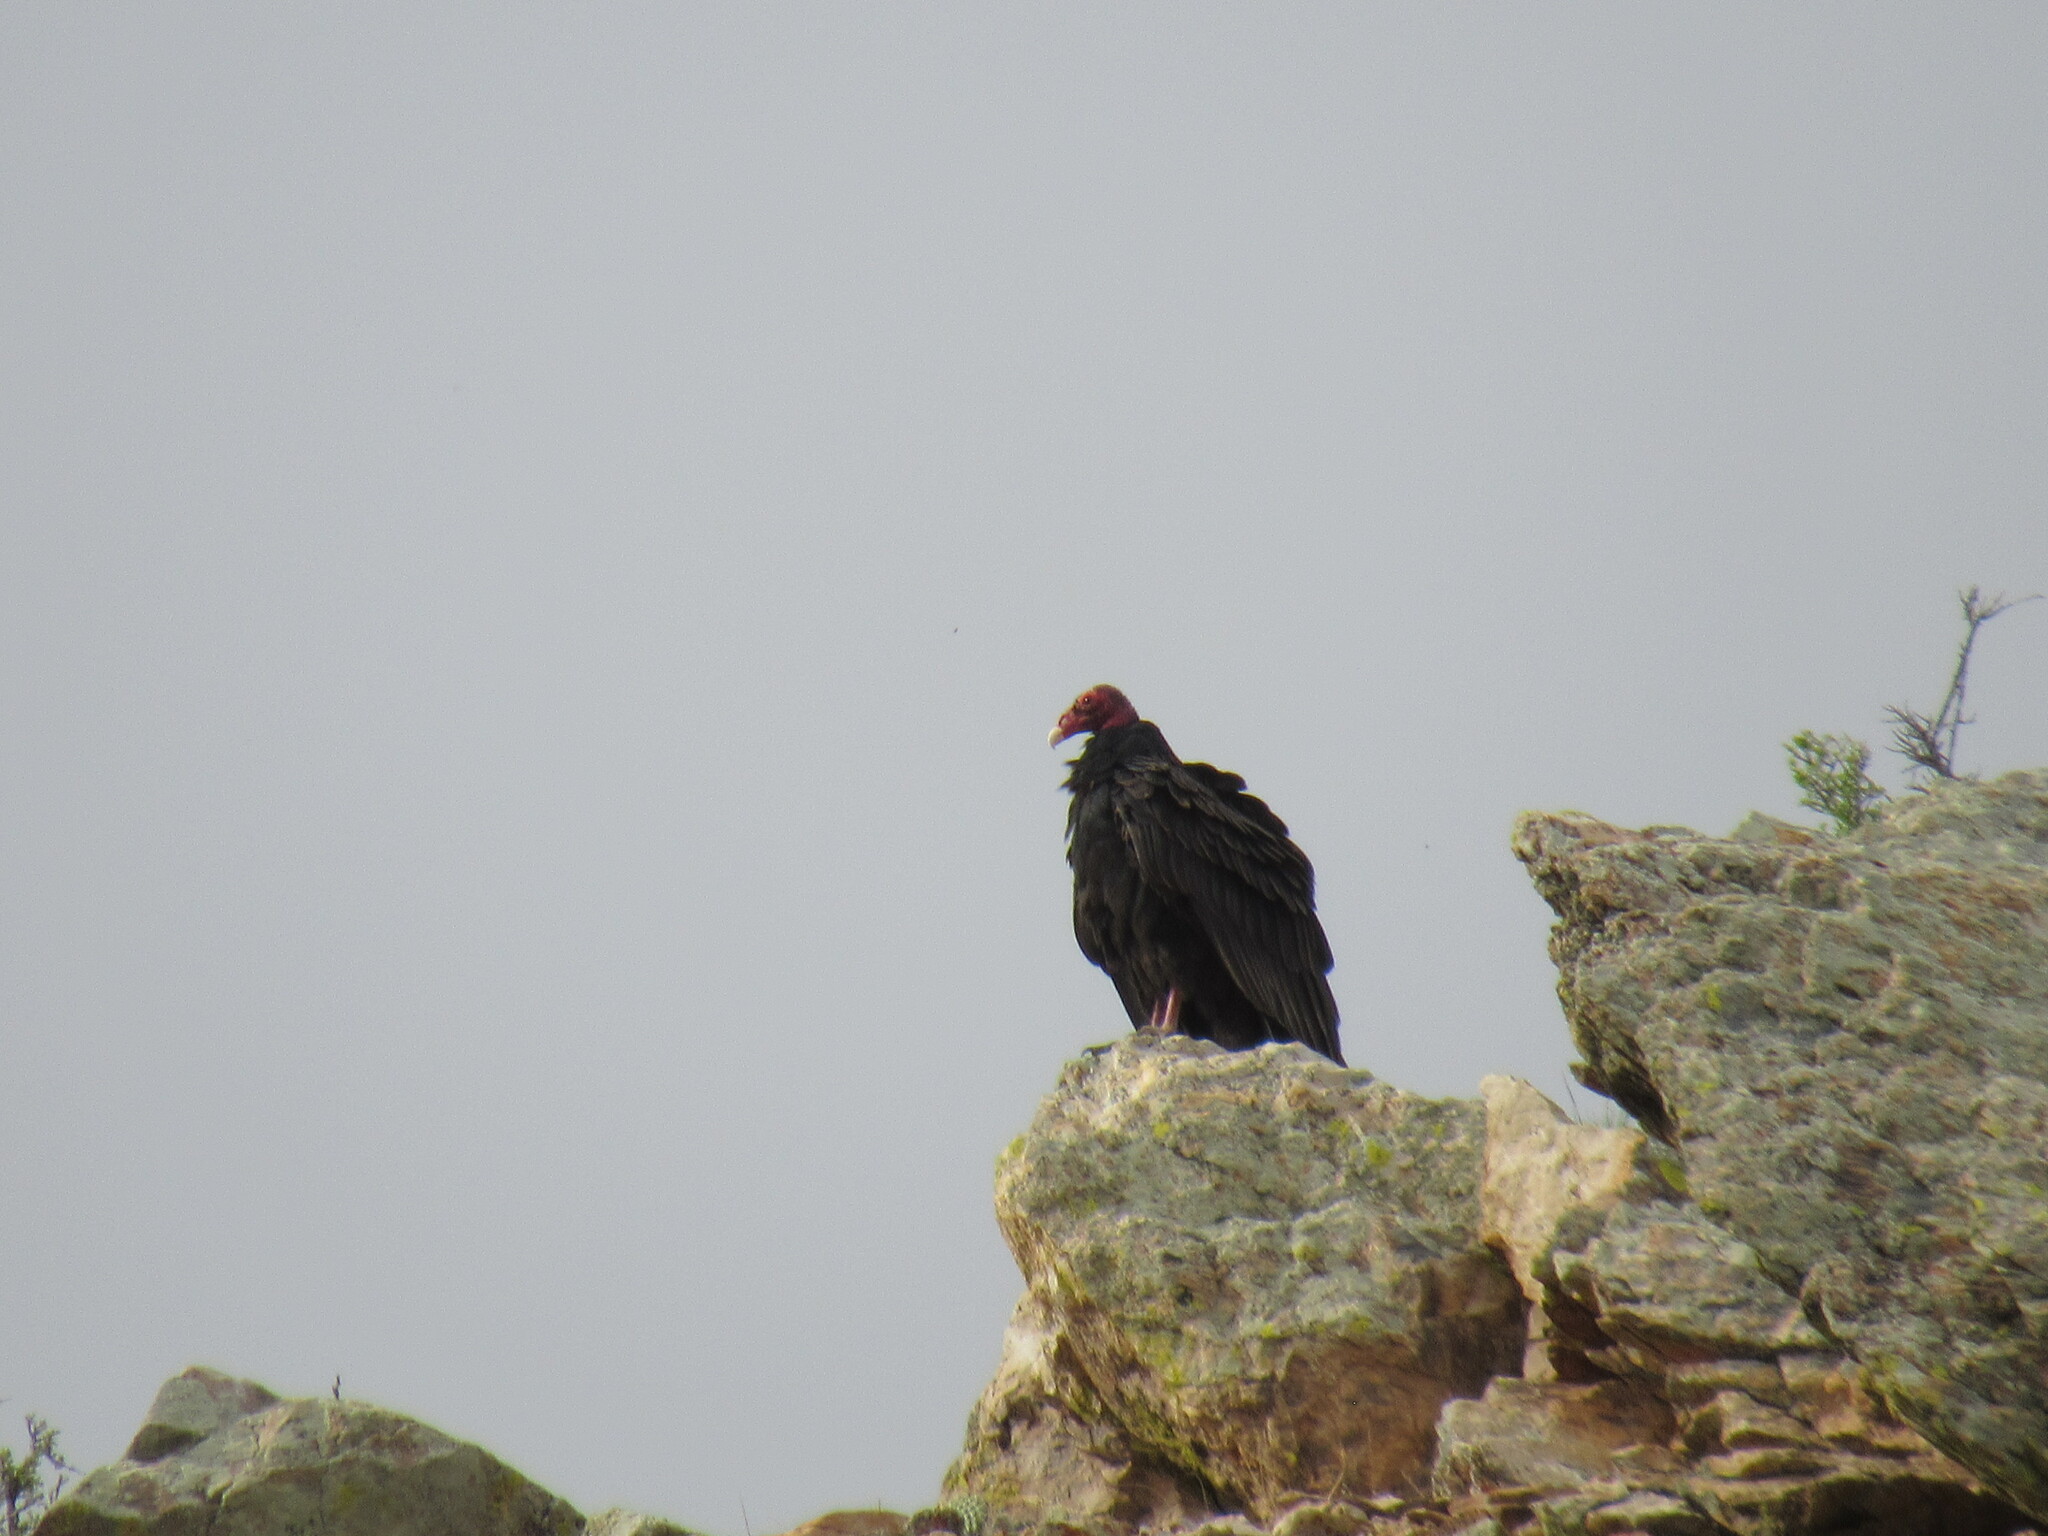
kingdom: Animalia
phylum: Chordata
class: Aves
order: Accipitriformes
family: Cathartidae
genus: Cathartes
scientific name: Cathartes aura
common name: Turkey vulture
